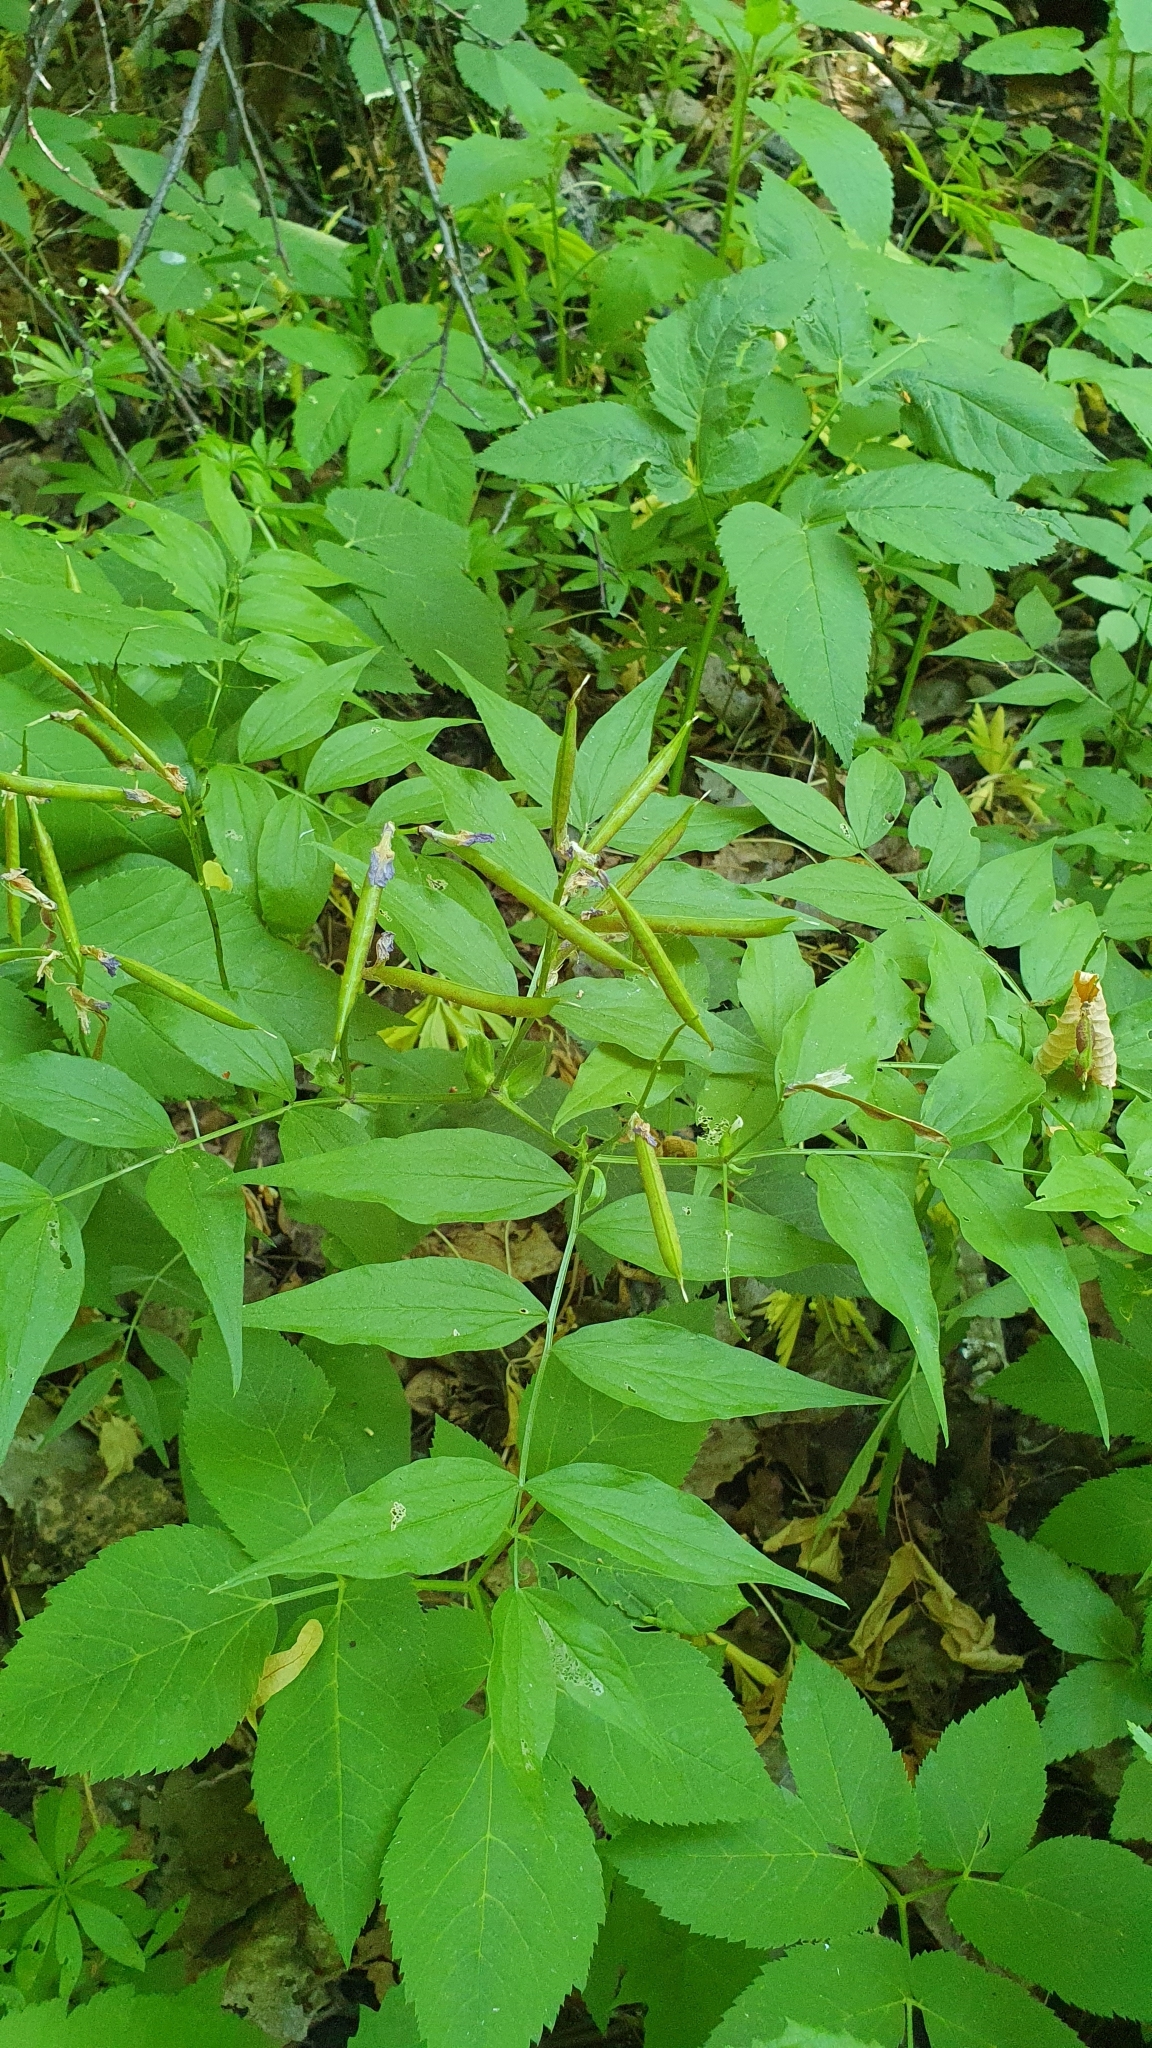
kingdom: Plantae
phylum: Tracheophyta
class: Magnoliopsida
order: Fabales
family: Fabaceae
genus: Lathyrus
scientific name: Lathyrus vernus
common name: Spring pea
